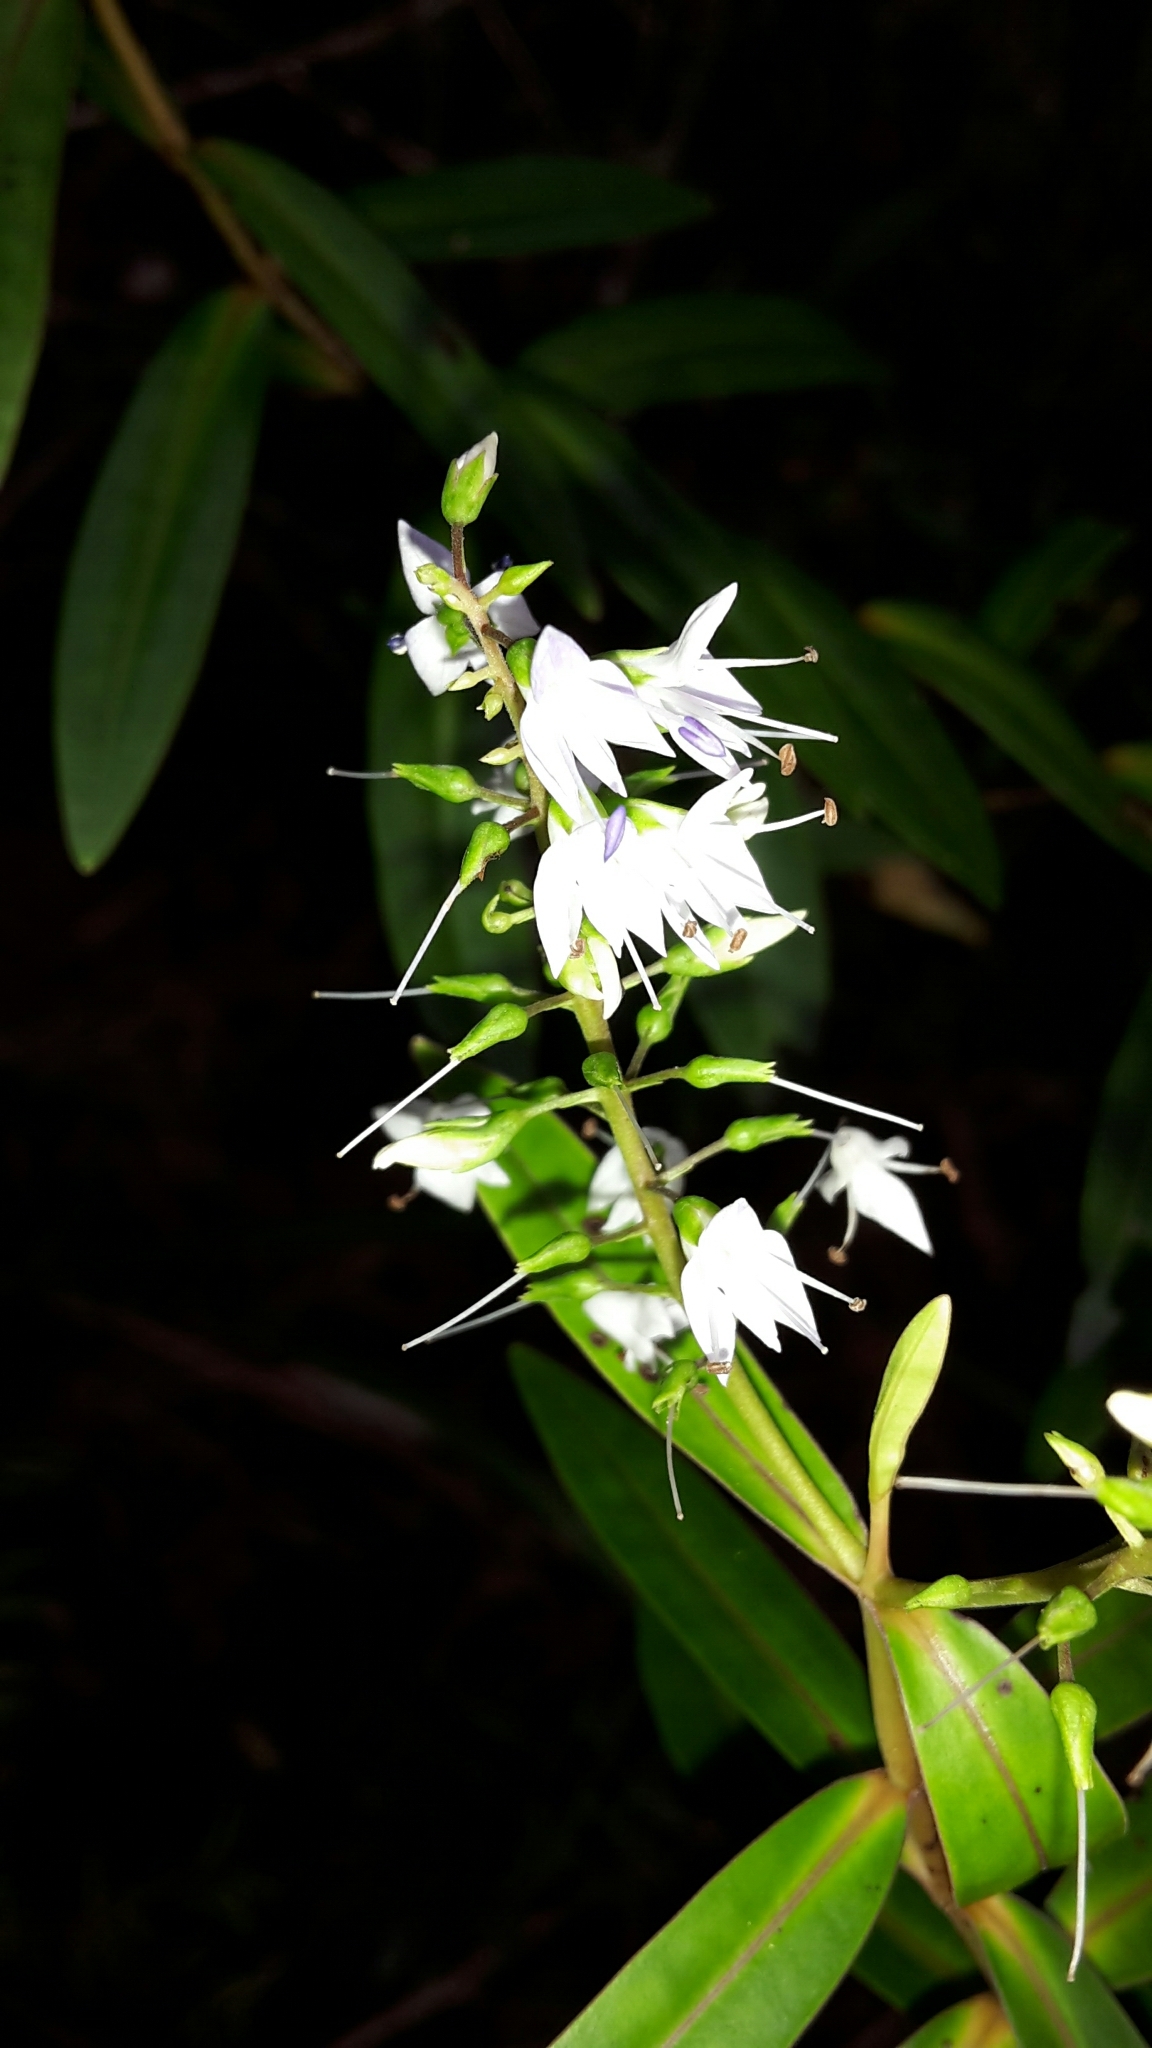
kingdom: Plantae
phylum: Tracheophyta
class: Magnoliopsida
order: Lamiales
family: Plantaginaceae
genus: Veronica
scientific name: Veronica ligustrifolia
